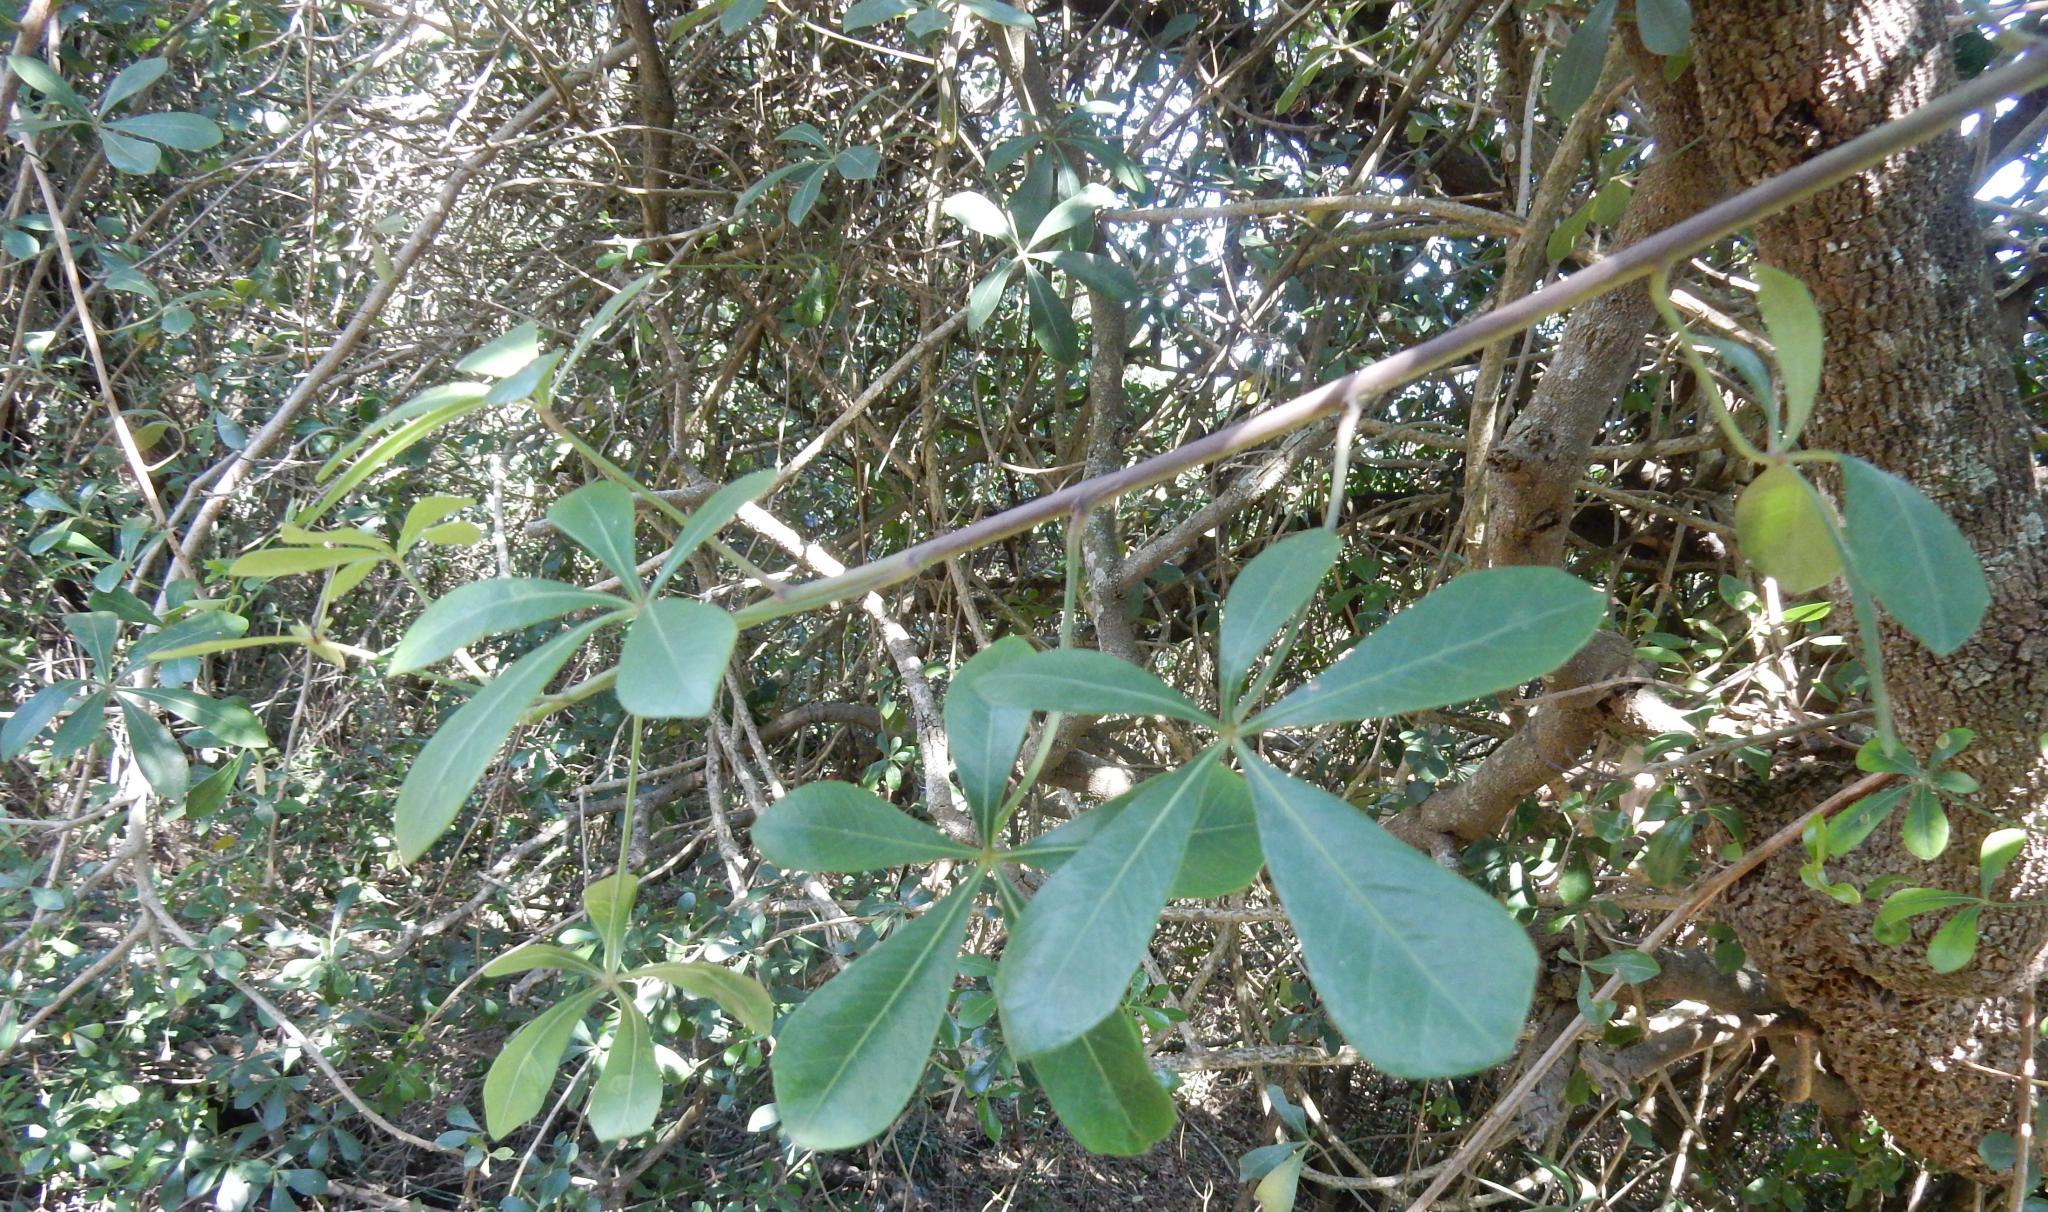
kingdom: Plantae
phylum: Tracheophyta
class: Magnoliopsida
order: Apiales
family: Araliaceae
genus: Cussonia
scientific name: Cussonia thyrsiflora
